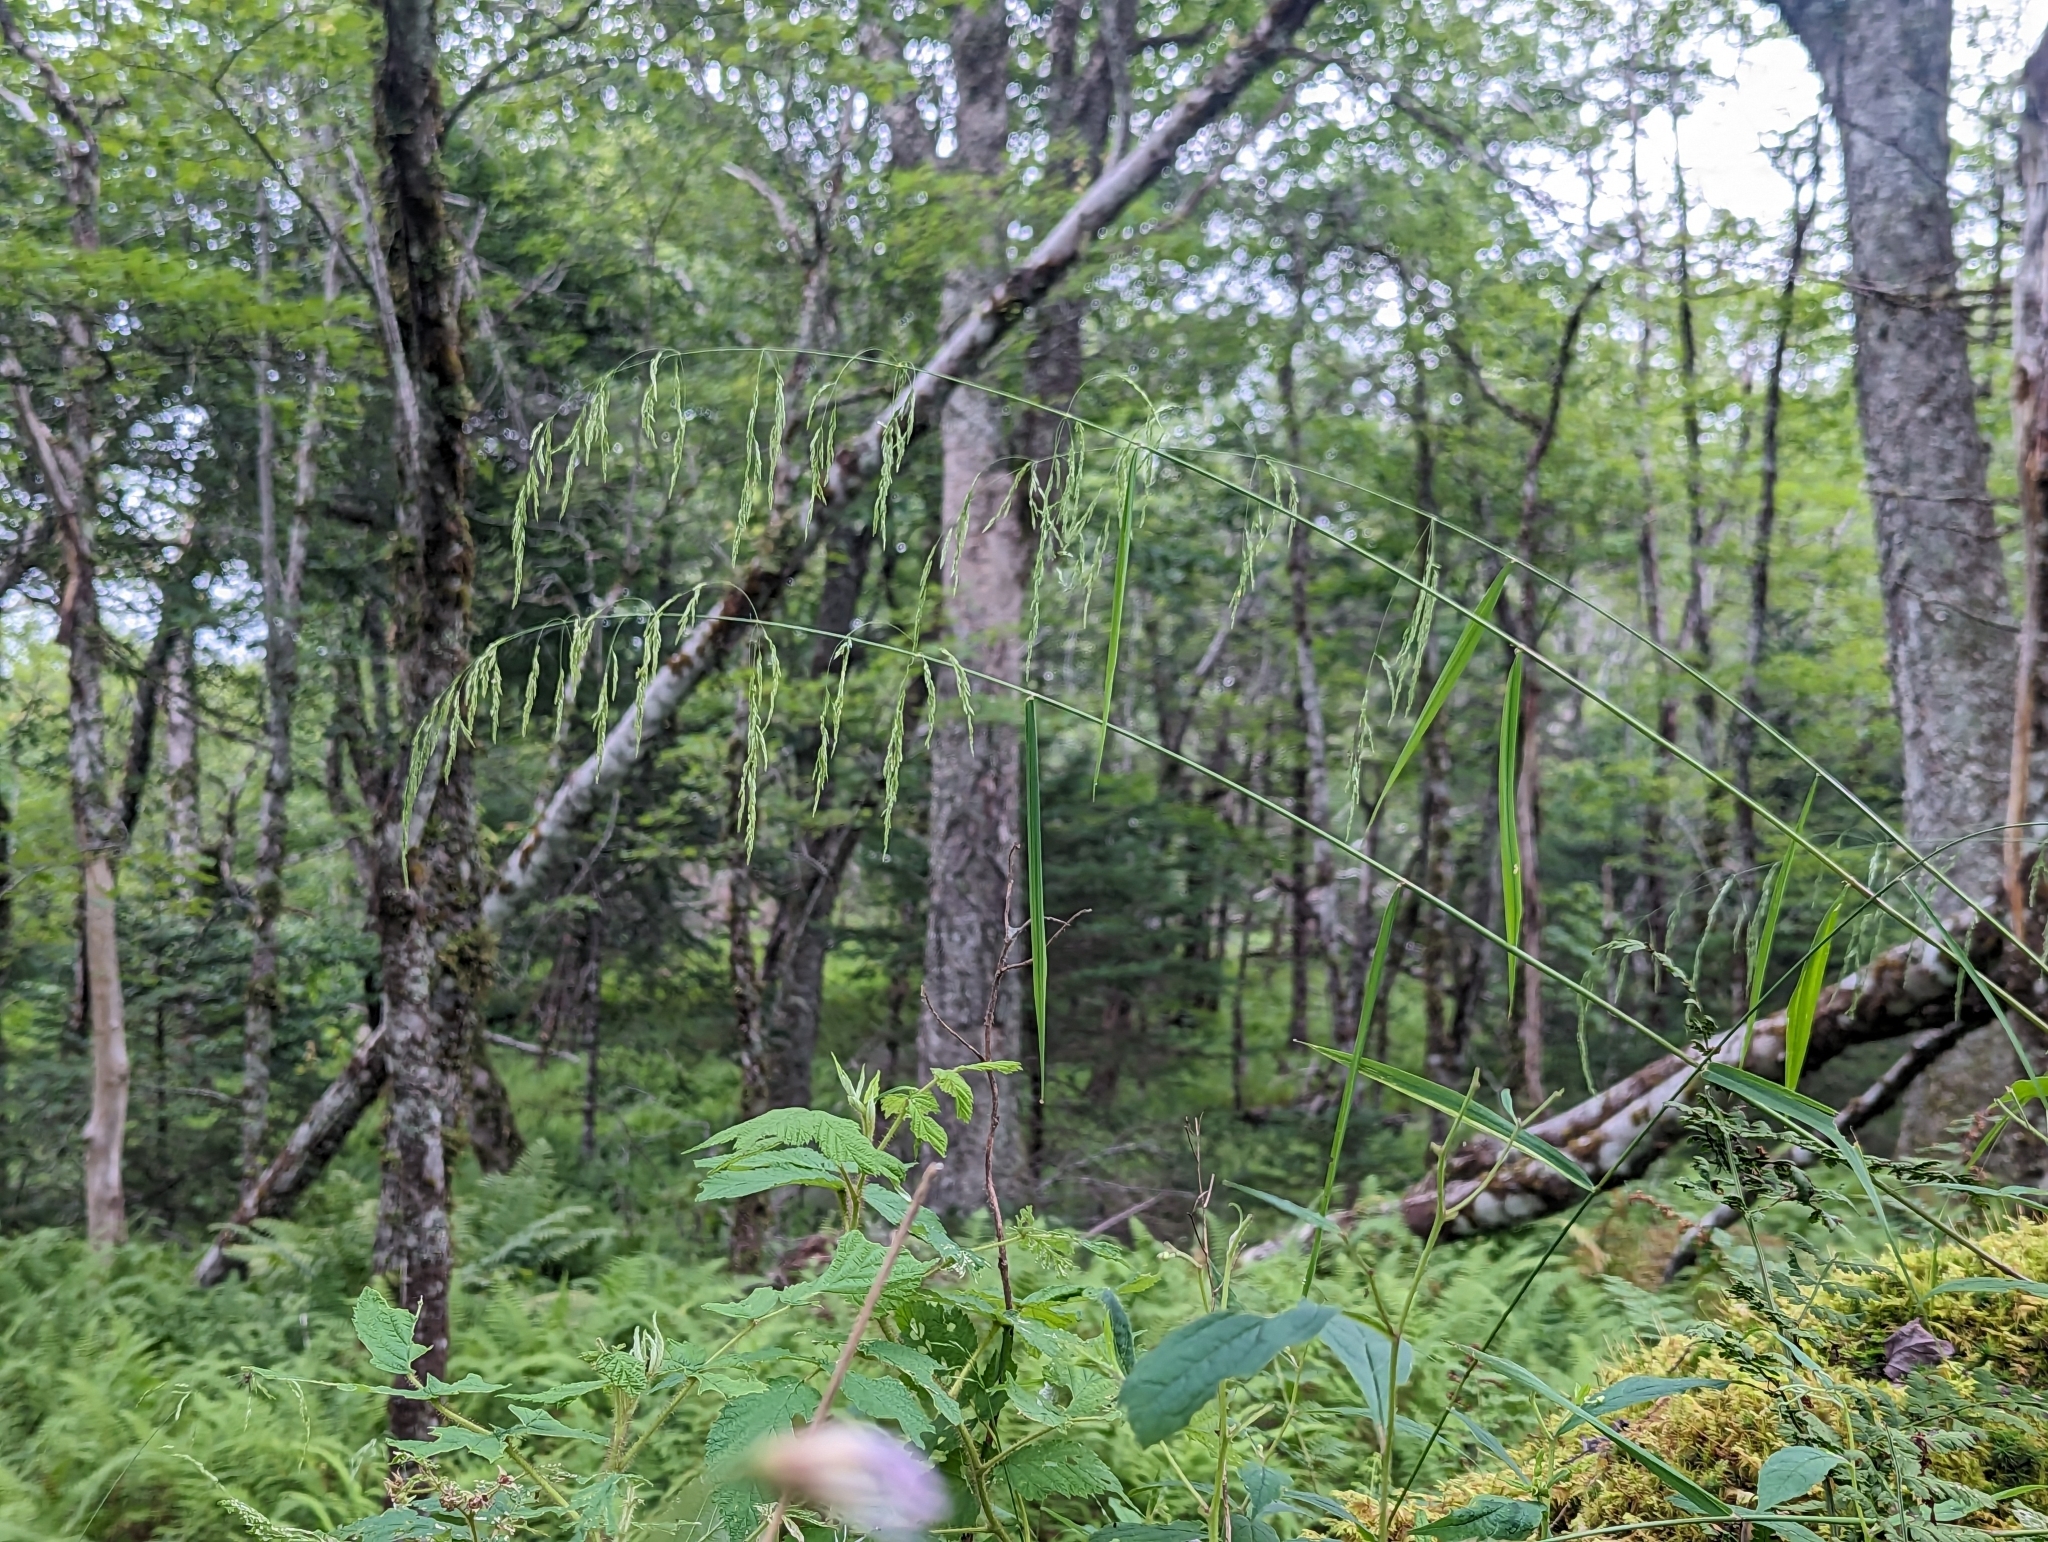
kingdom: Plantae
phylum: Tracheophyta
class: Liliopsida
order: Poales
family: Poaceae
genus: Cinna
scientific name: Cinna latifolia
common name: Drooping woodreed
